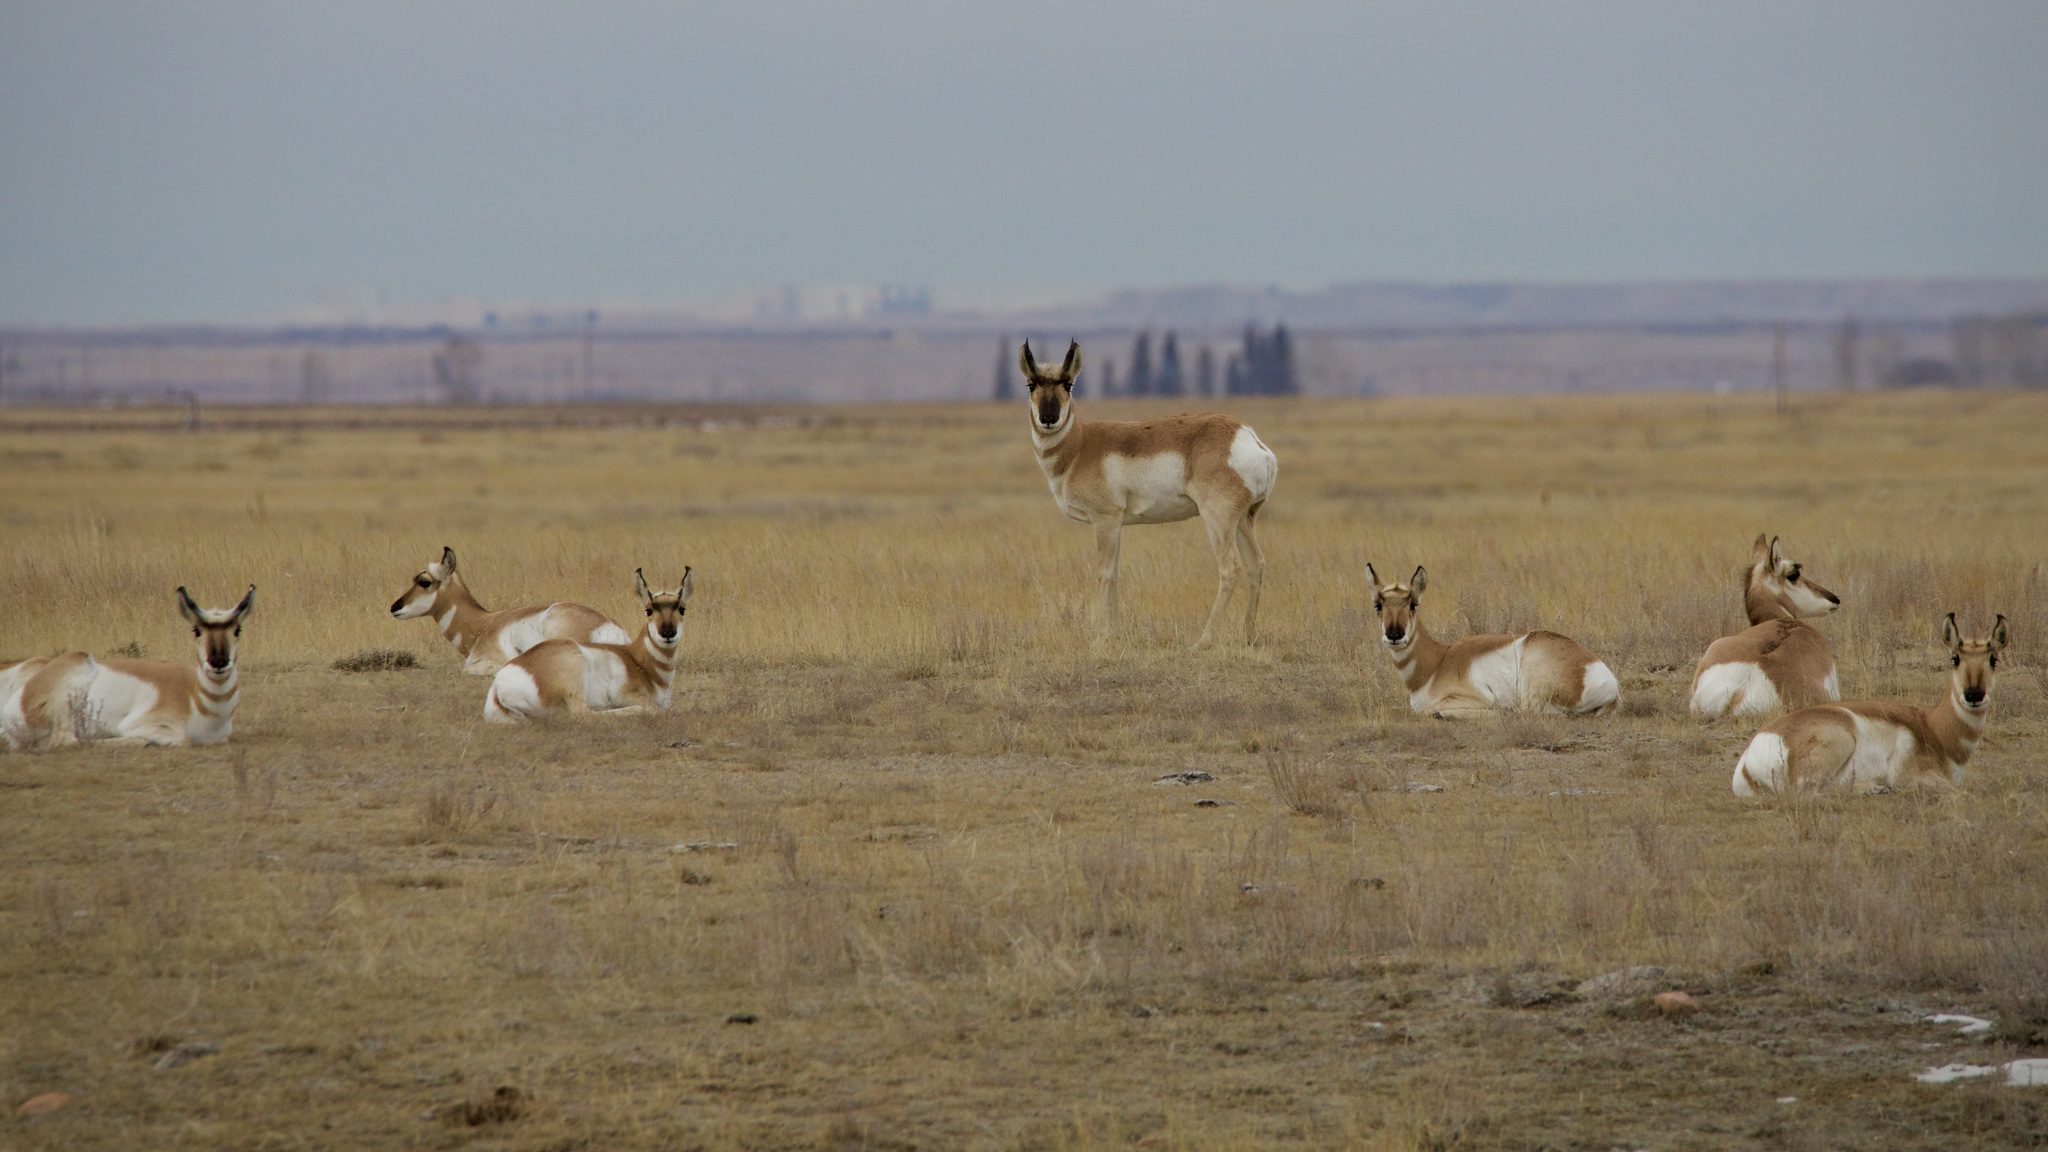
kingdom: Animalia
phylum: Chordata
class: Mammalia
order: Artiodactyla
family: Antilocapridae
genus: Antilocapra
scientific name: Antilocapra americana
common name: Pronghorn
